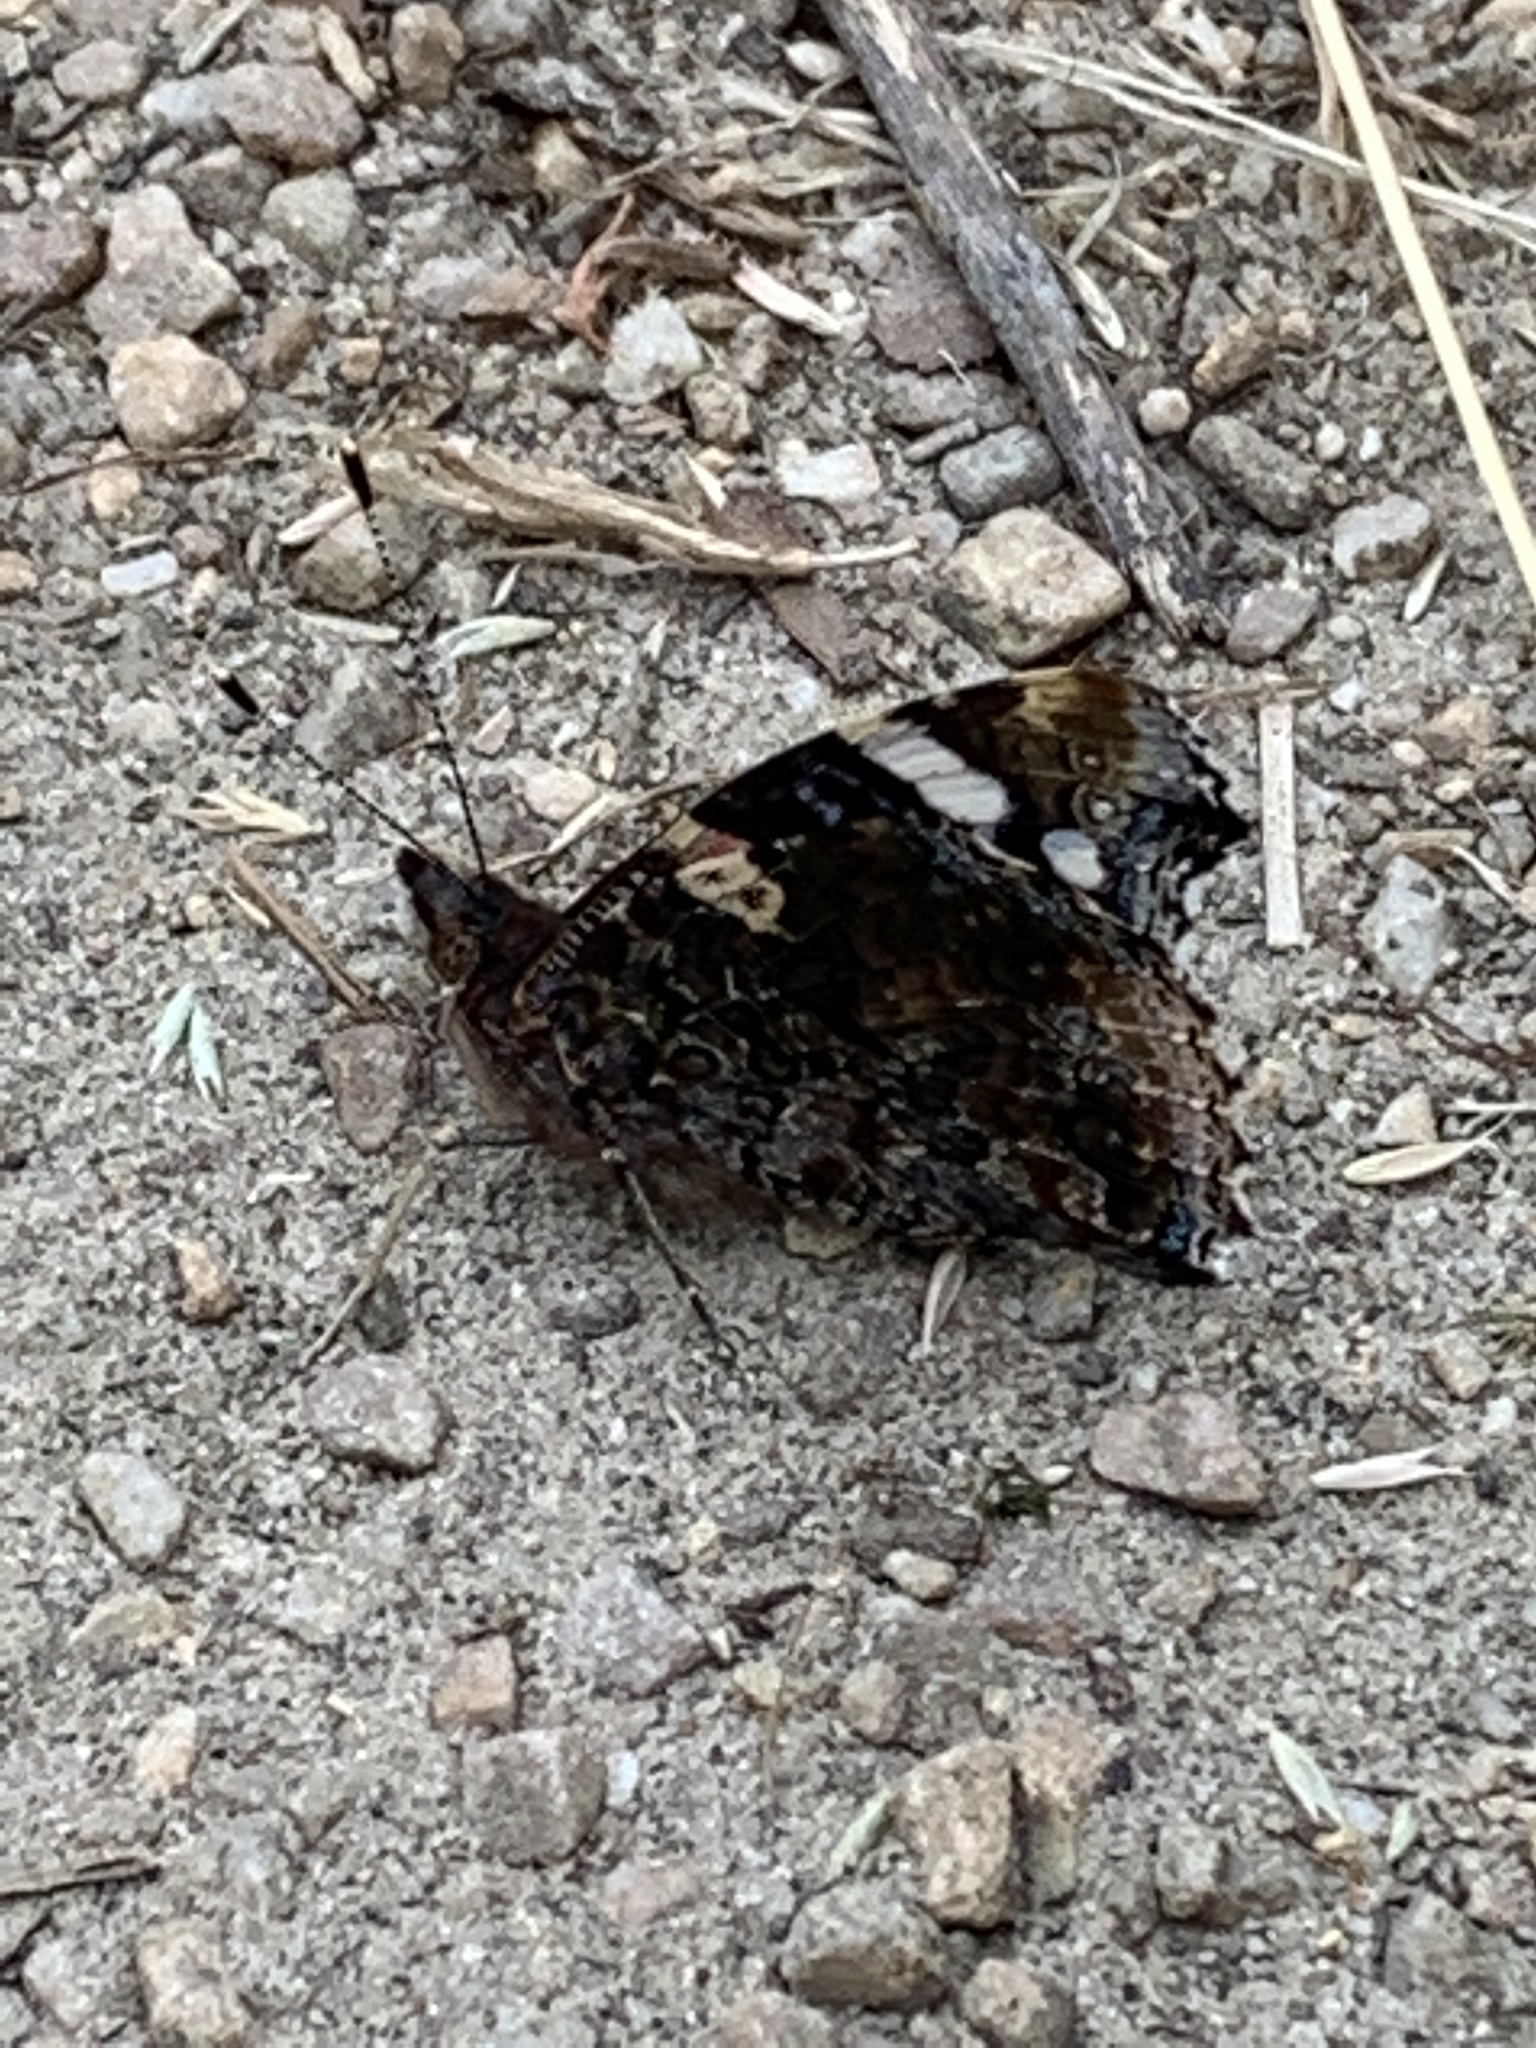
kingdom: Animalia
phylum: Arthropoda
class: Insecta
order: Lepidoptera
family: Nymphalidae
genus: Vanessa
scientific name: Vanessa atalanta
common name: Red admiral
